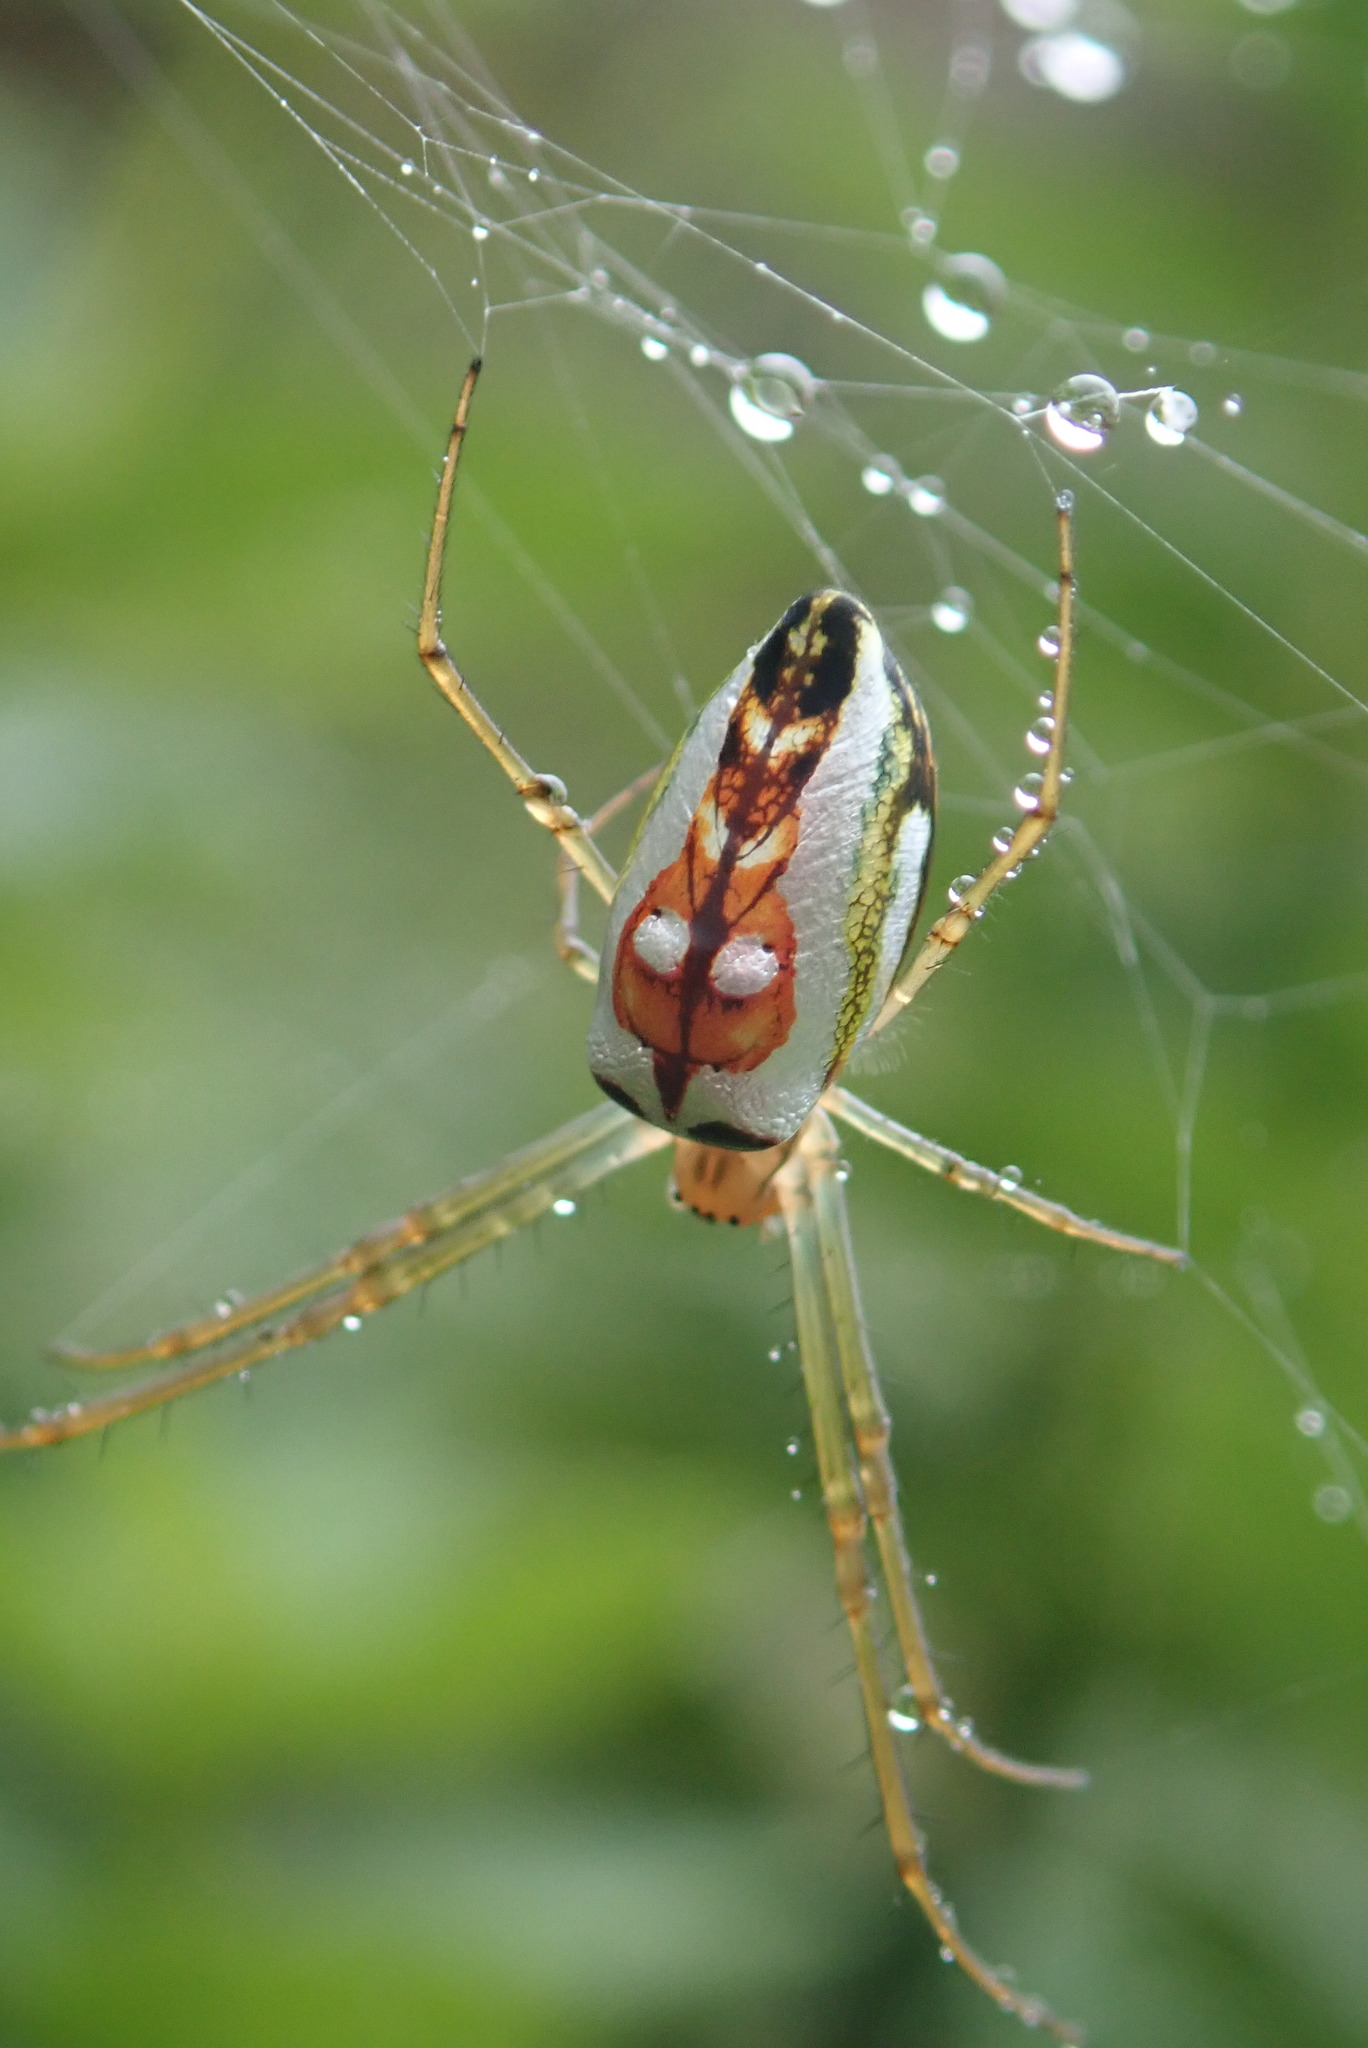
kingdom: Animalia
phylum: Arthropoda
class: Arachnida
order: Araneae
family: Tetragnathidae
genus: Leucauge
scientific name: Leucauge festiva
